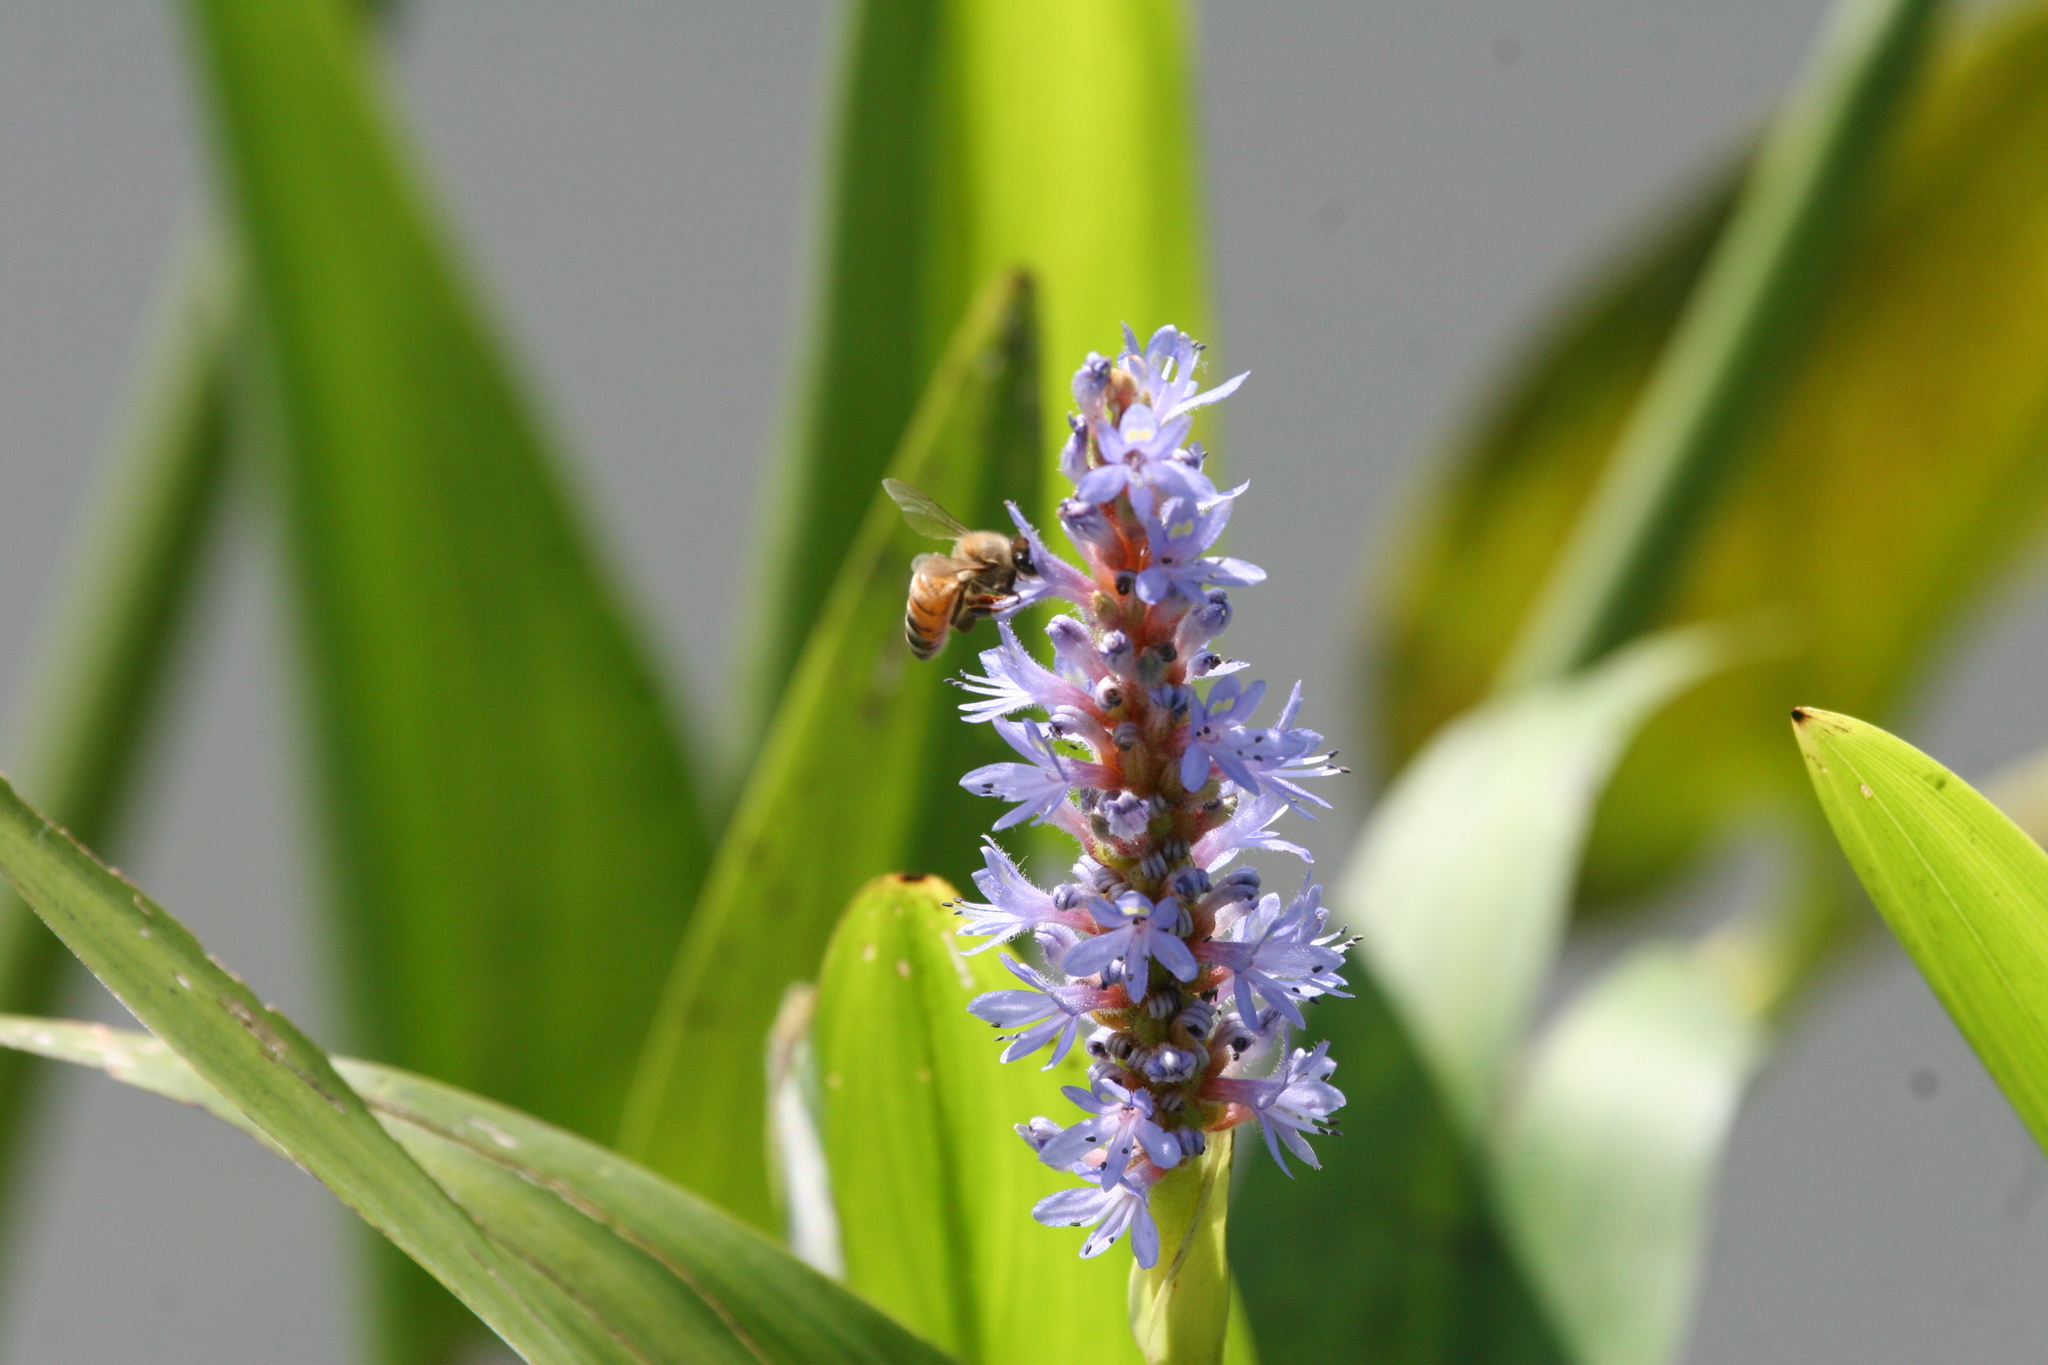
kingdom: Animalia
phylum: Arthropoda
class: Insecta
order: Hymenoptera
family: Apidae
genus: Apis
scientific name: Apis mellifera
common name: Honey bee
